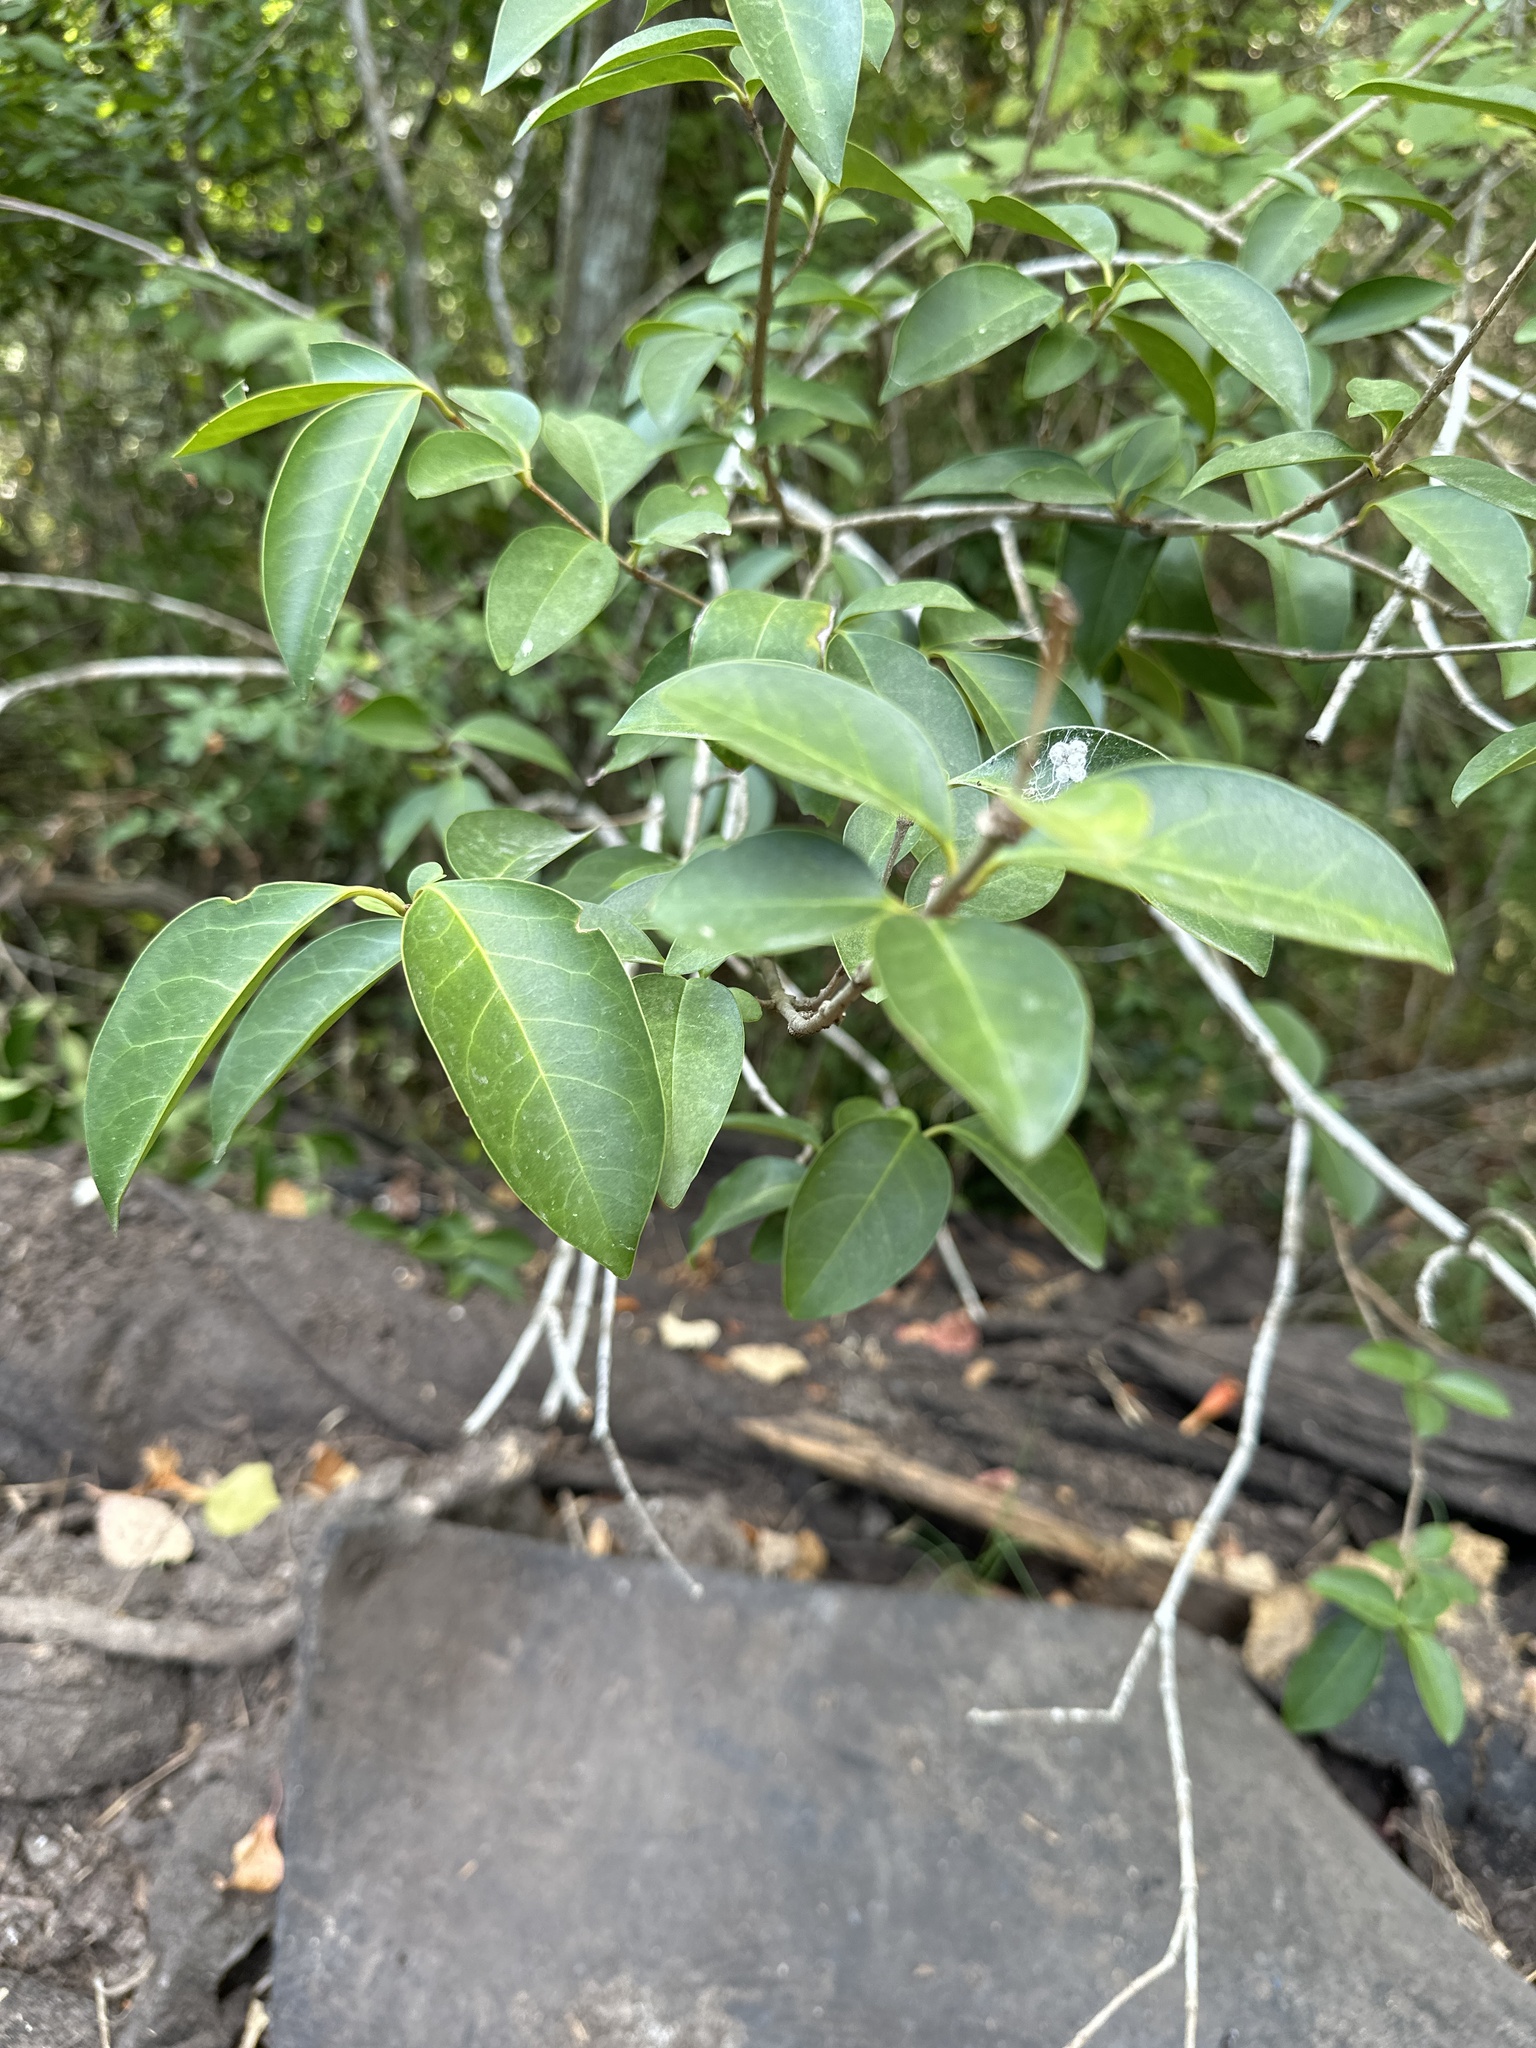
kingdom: Plantae
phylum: Tracheophyta
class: Magnoliopsida
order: Lamiales
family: Oleaceae
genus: Ligustrum
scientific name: Ligustrum lucidum
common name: Glossy privet
